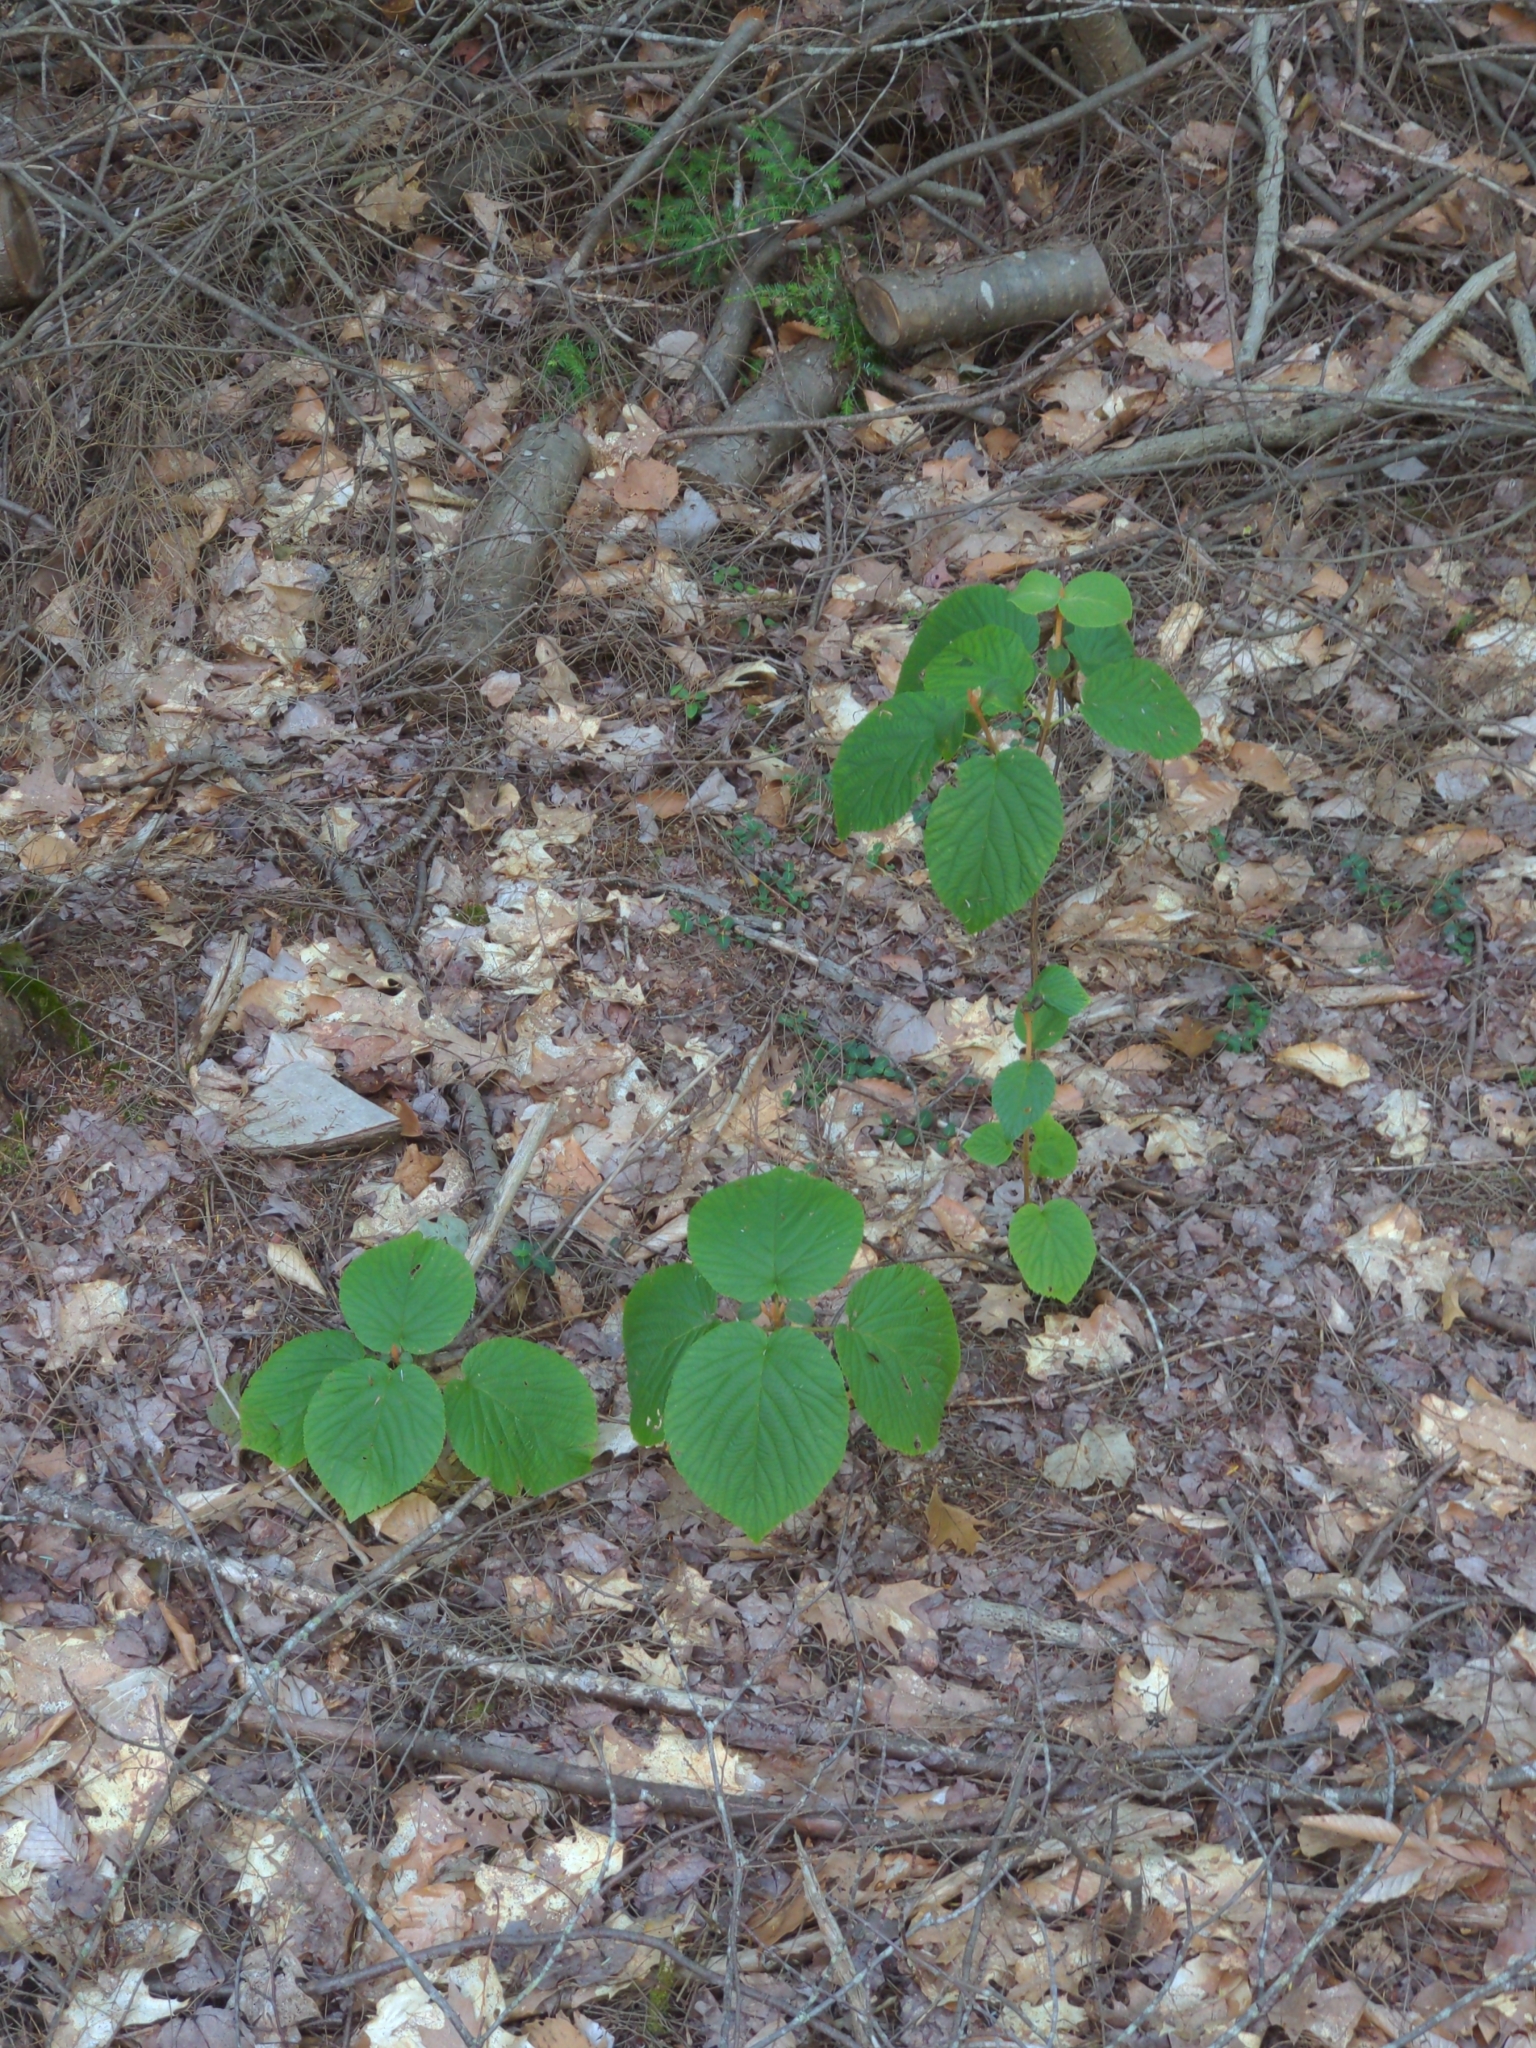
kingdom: Plantae
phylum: Tracheophyta
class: Magnoliopsida
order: Dipsacales
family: Viburnaceae
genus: Viburnum
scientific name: Viburnum lantanoides
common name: Hobblebush
